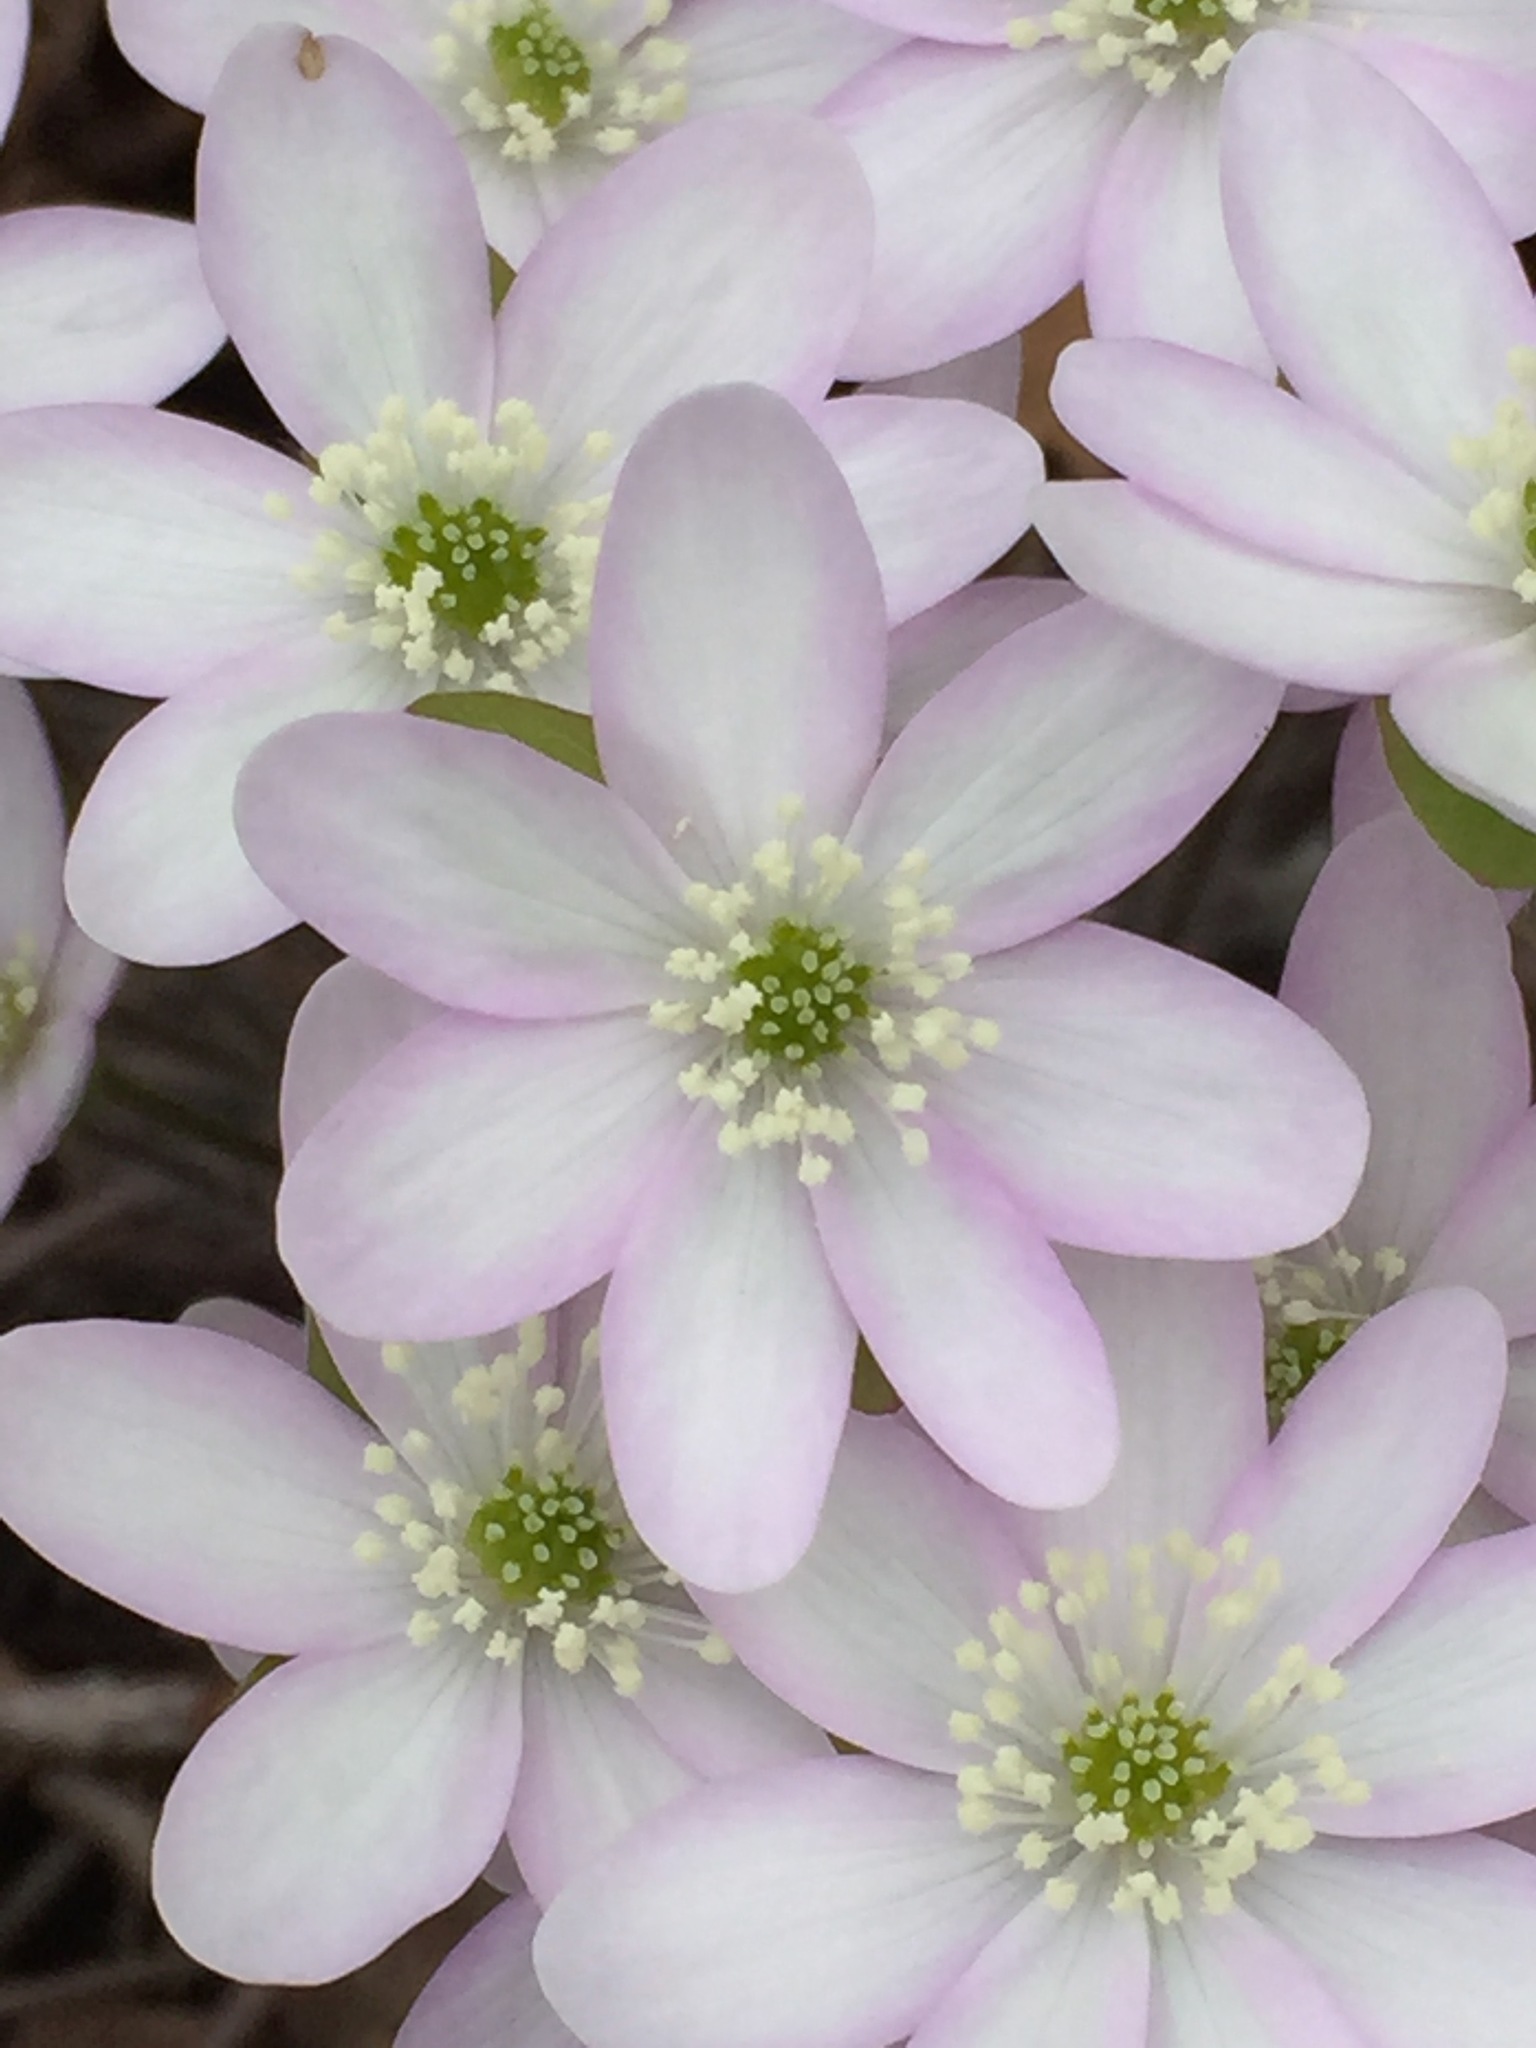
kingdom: Plantae
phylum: Tracheophyta
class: Magnoliopsida
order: Ranunculales
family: Ranunculaceae
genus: Hepatica
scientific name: Hepatica acutiloba
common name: Sharp-lobed hepatica
